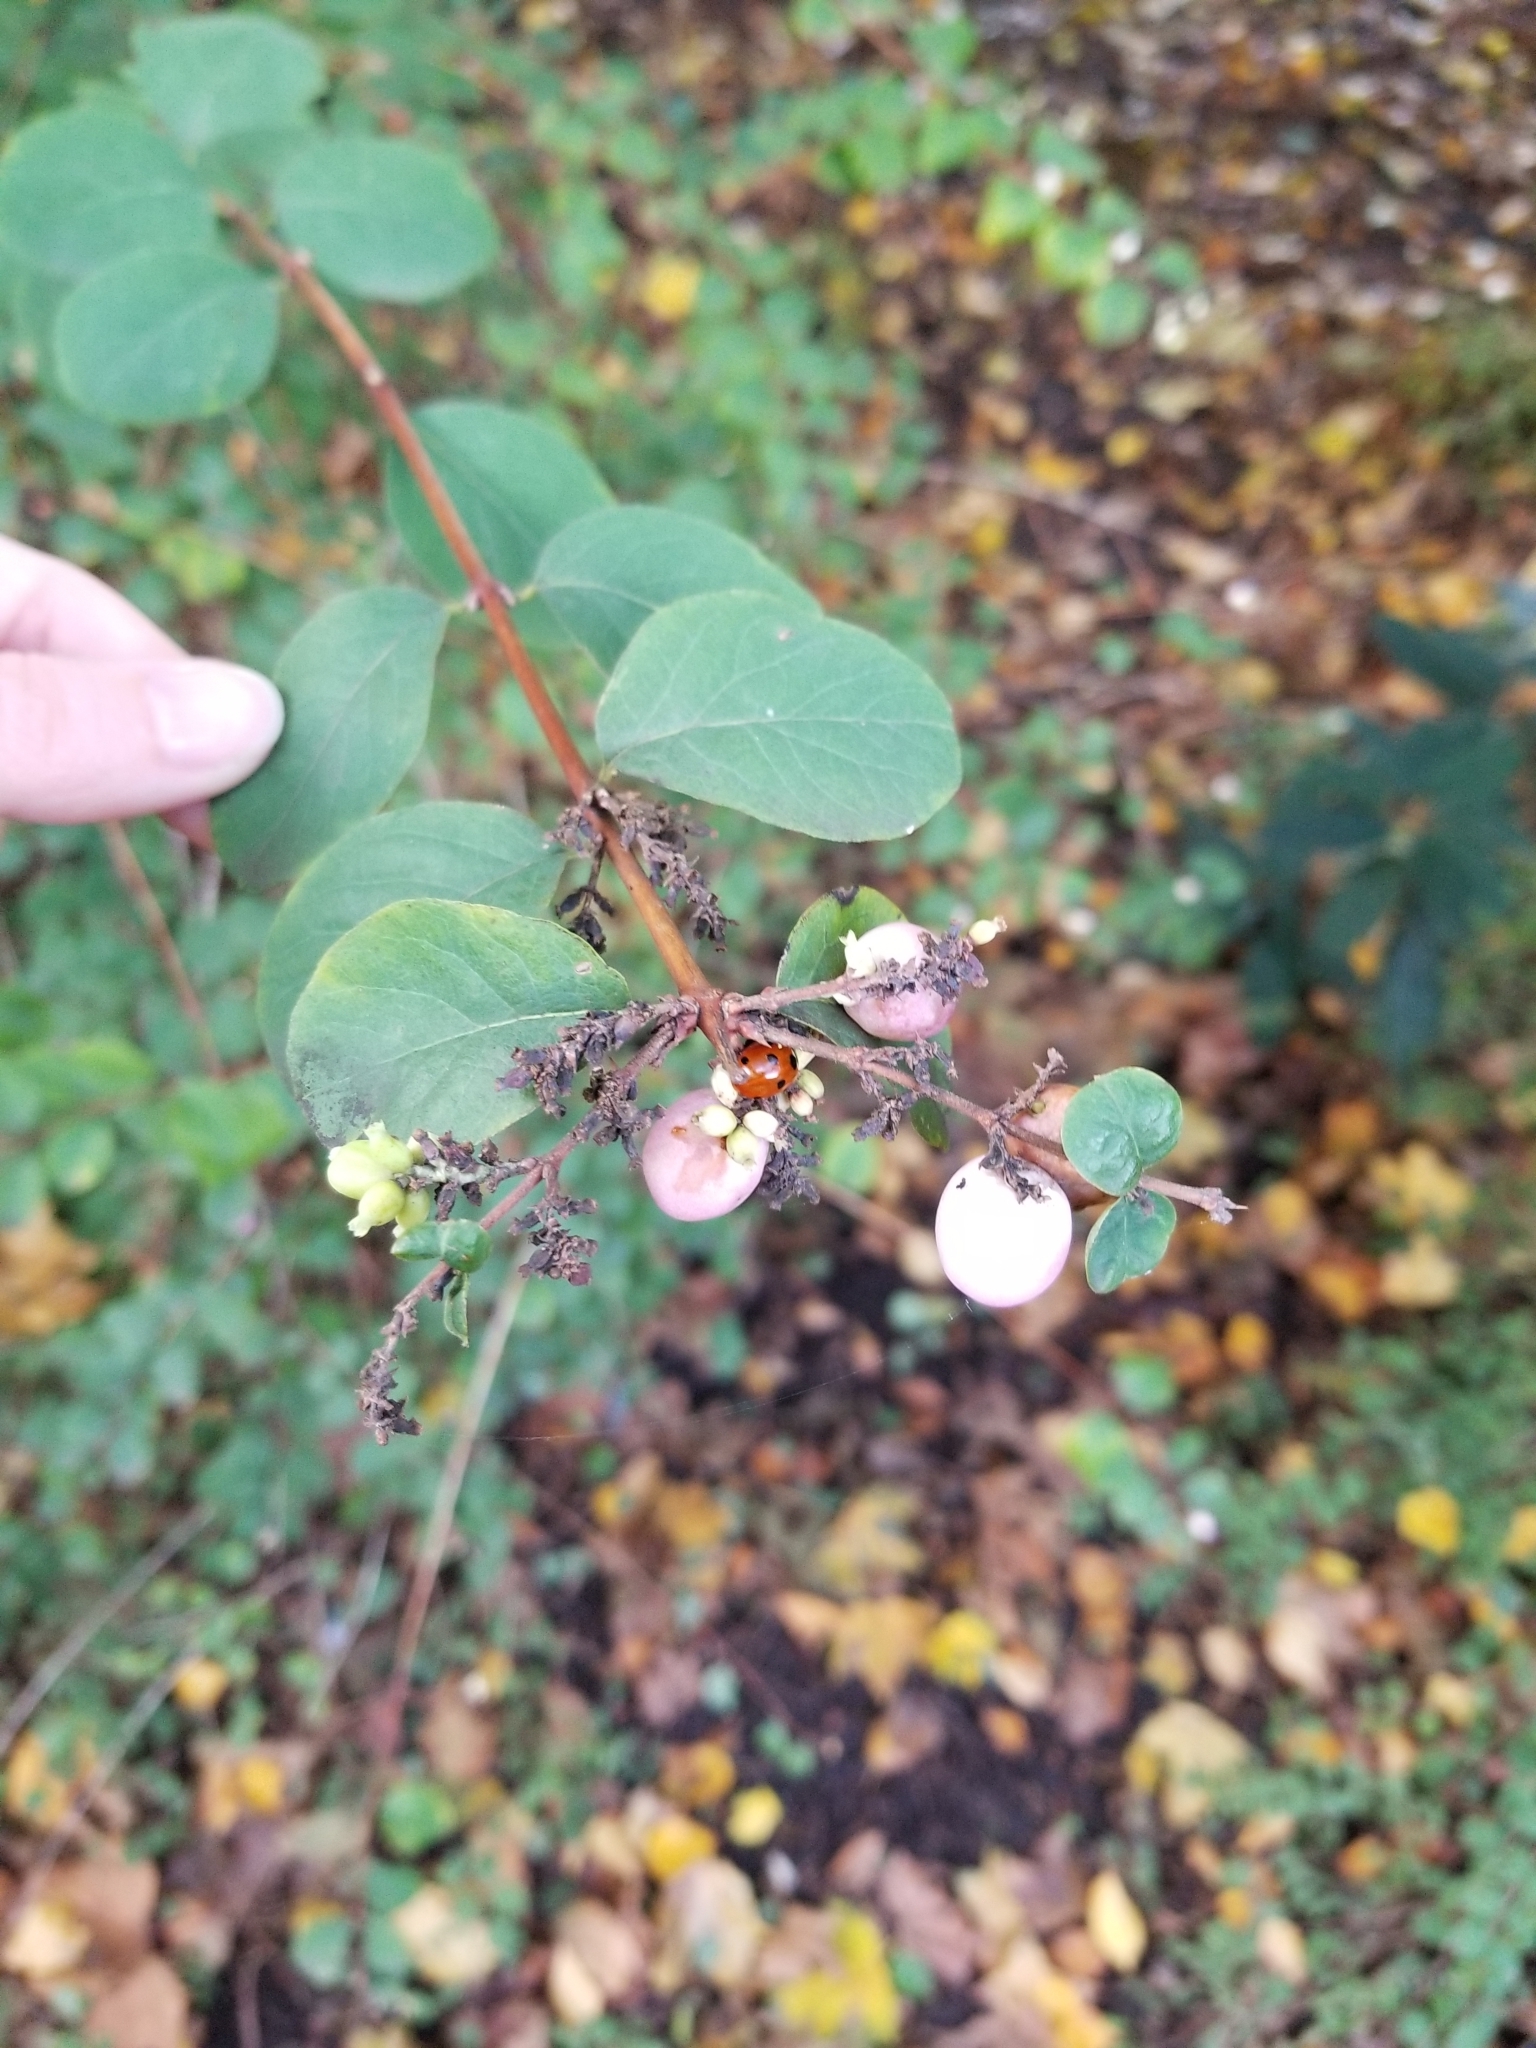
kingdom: Animalia
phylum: Arthropoda
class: Insecta
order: Coleoptera
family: Coccinellidae
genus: Coccinella
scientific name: Coccinella septempunctata
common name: Sevenspotted lady beetle
